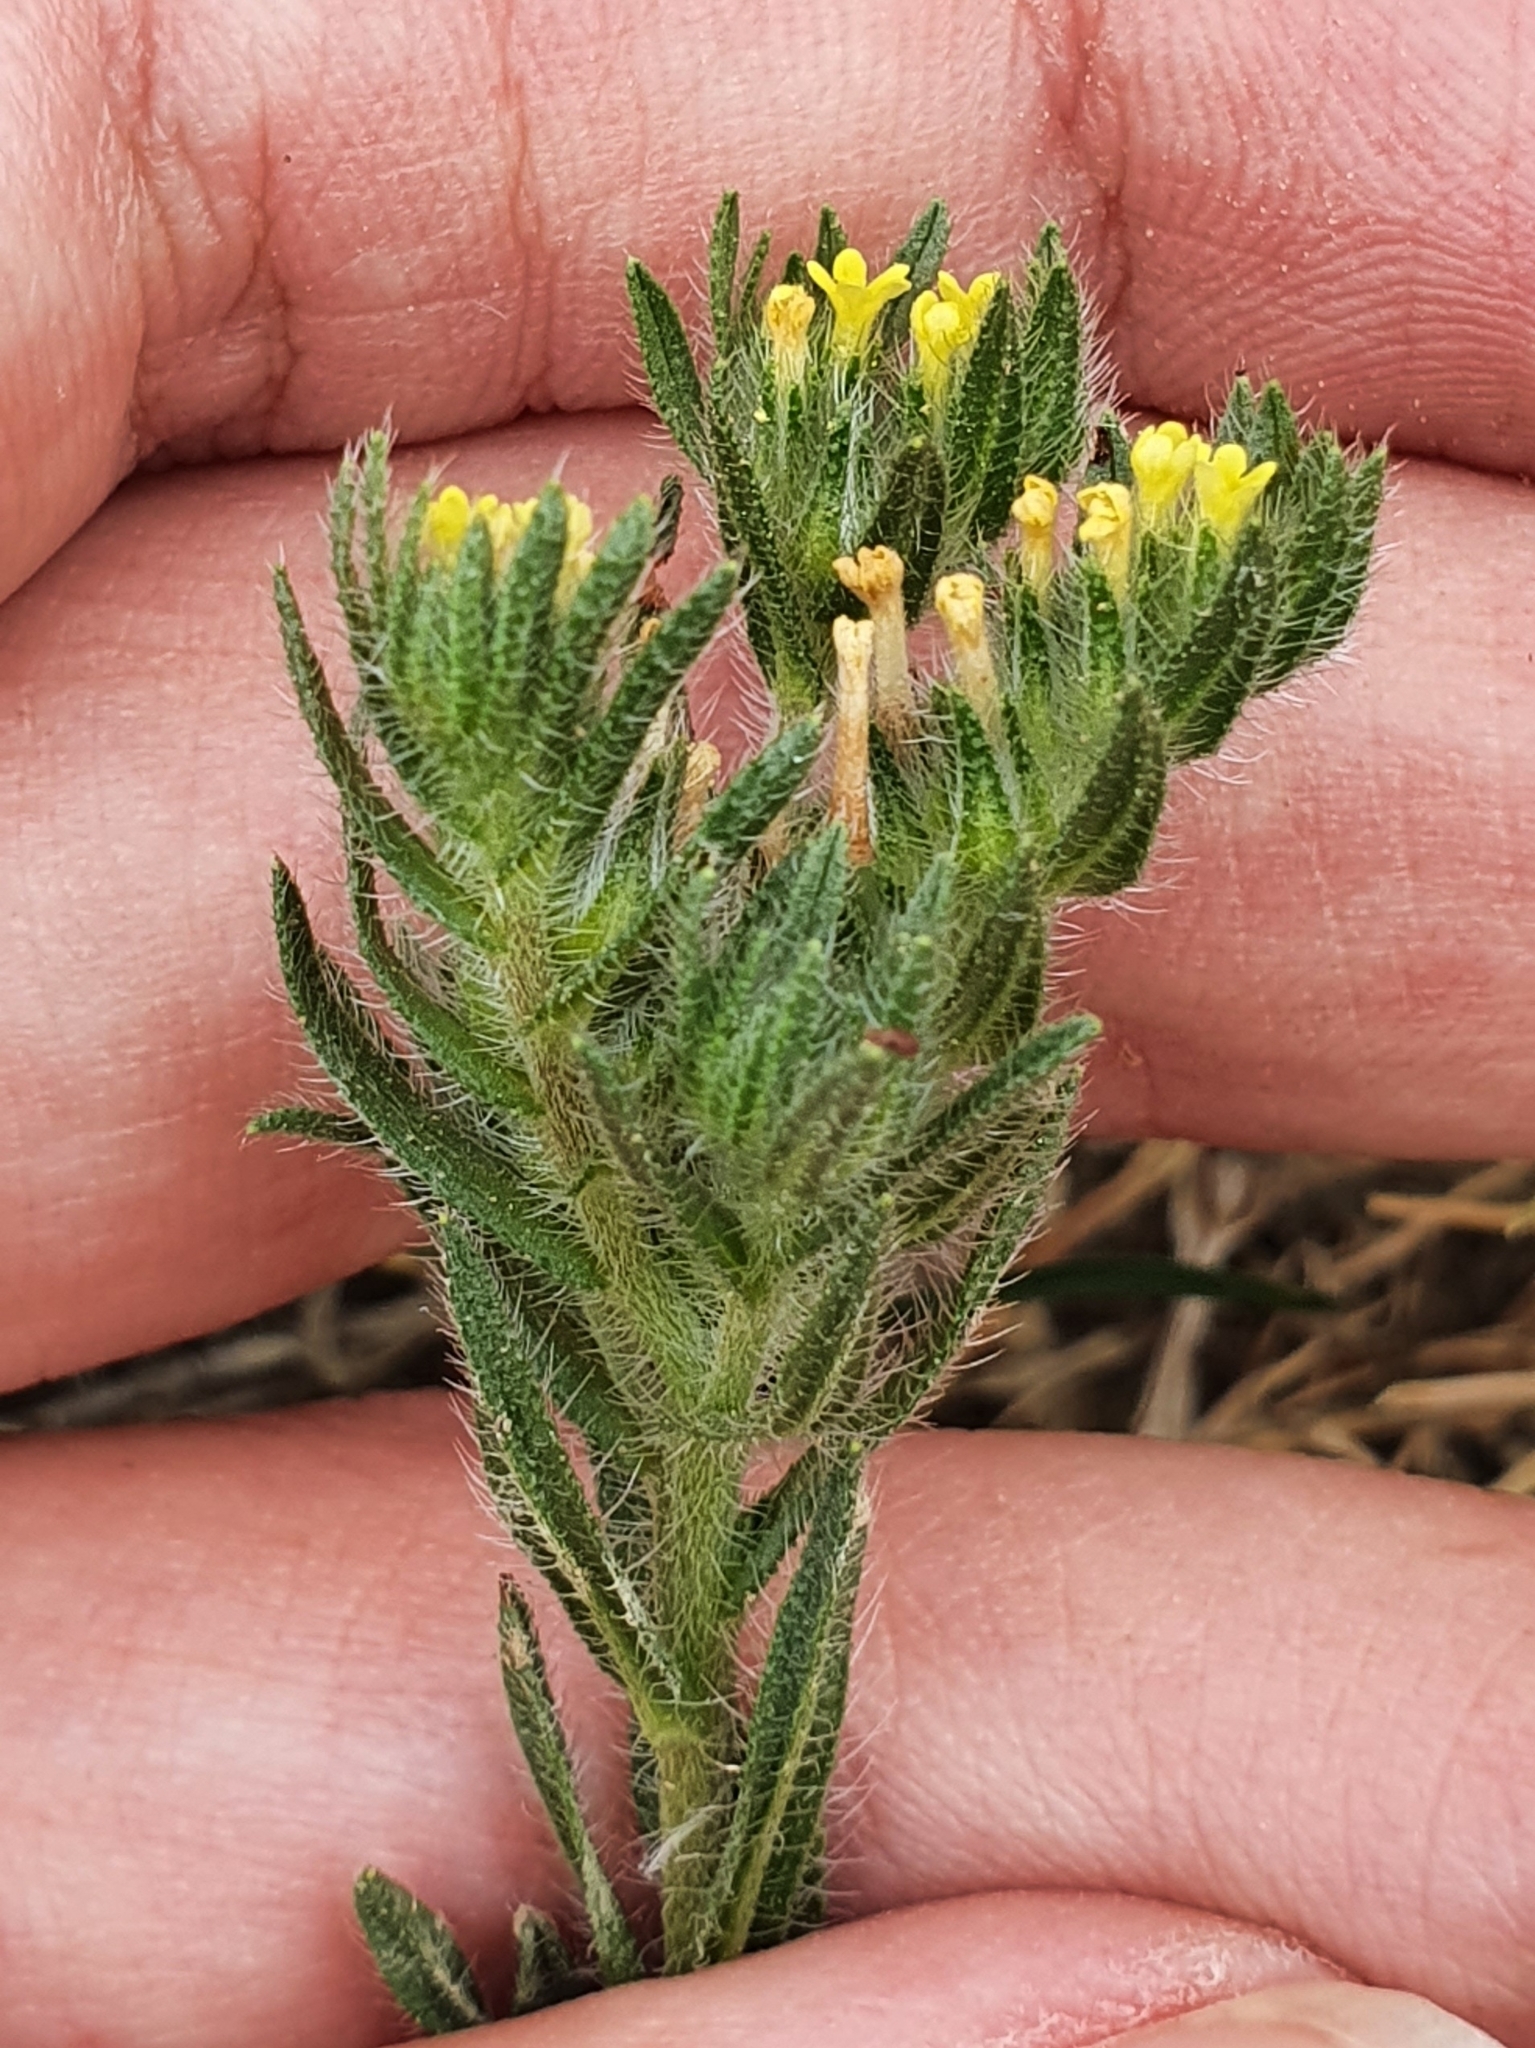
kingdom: Plantae
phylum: Tracheophyta
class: Magnoliopsida
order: Boraginales
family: Boraginaceae
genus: Neatostema
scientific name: Neatostema apulum
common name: Hairy sheepweed
